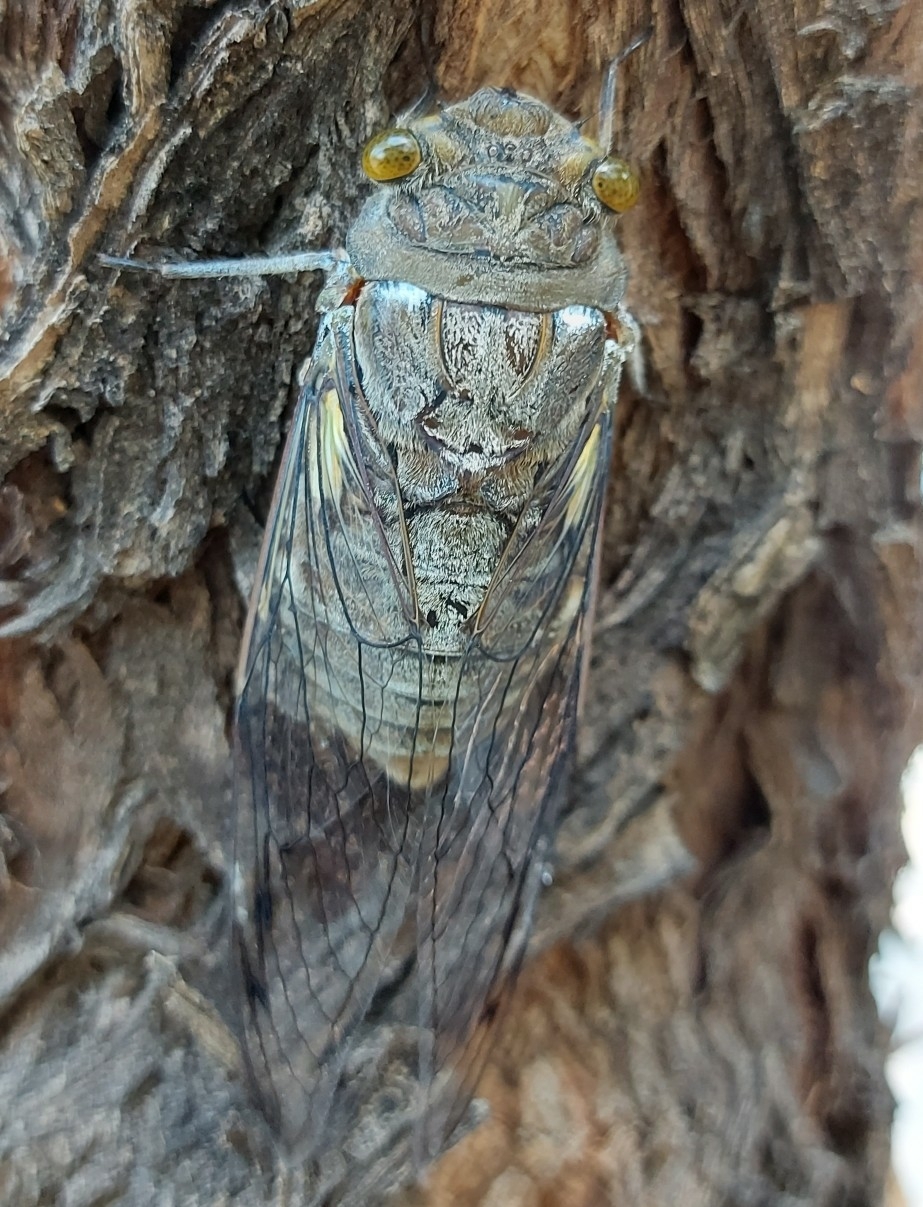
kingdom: Animalia
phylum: Arthropoda
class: Insecta
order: Hemiptera
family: Cicadidae
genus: Quesada
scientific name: Quesada gigas
